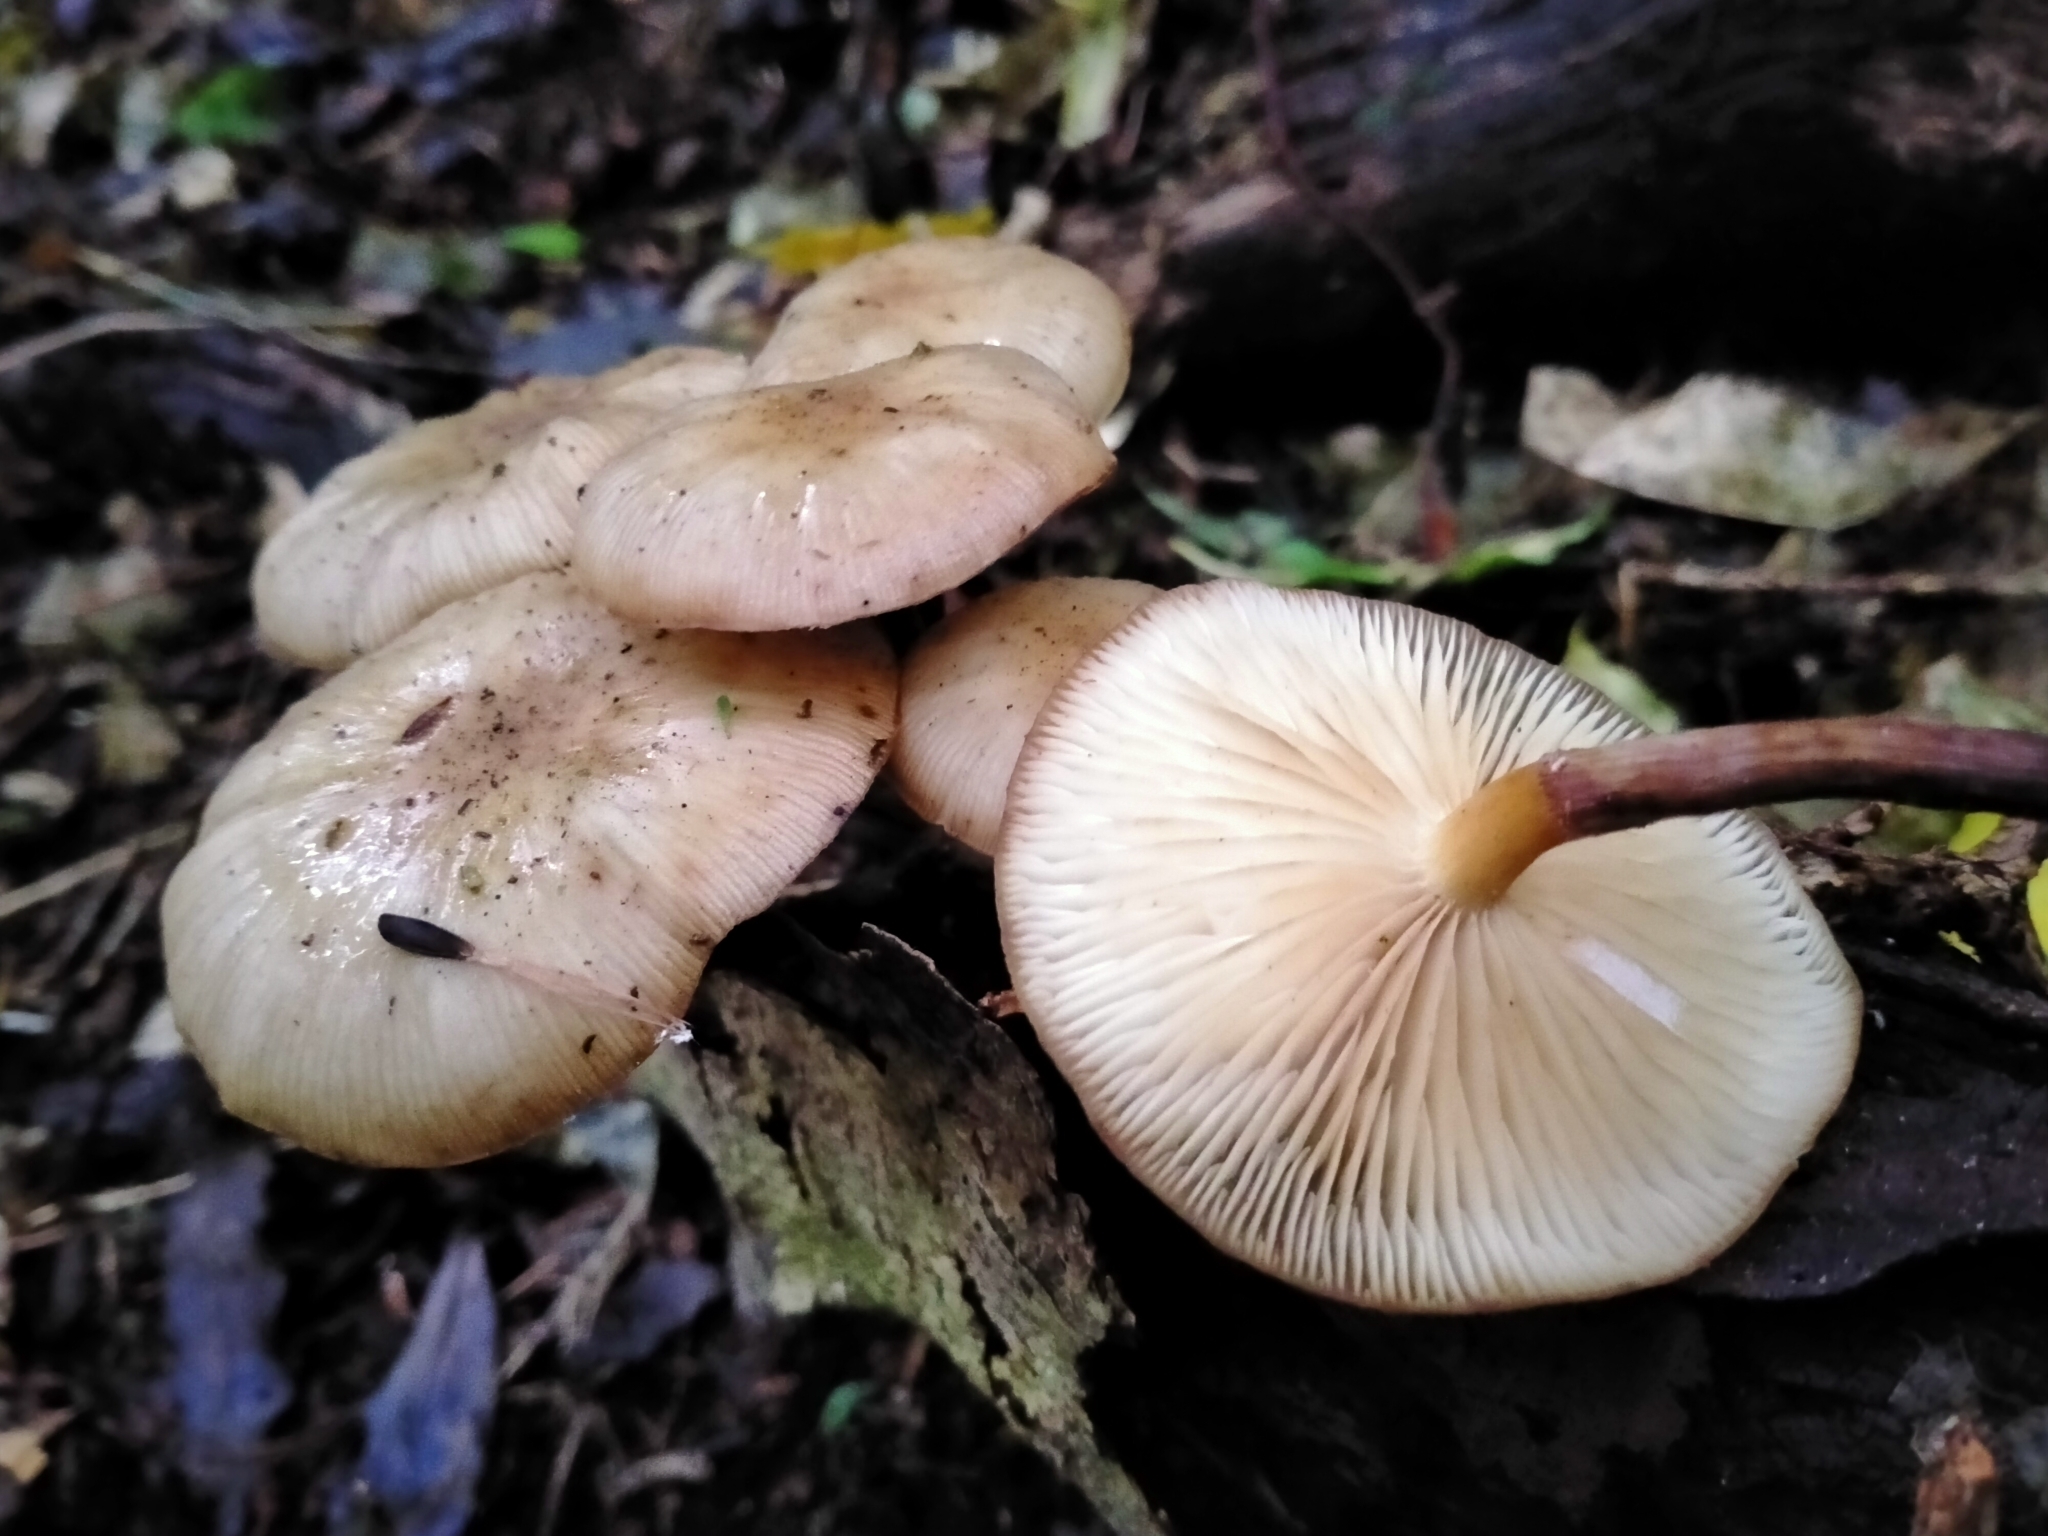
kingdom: Fungi
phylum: Basidiomycota
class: Agaricomycetes
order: Agaricales
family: Physalacriaceae
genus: Armillaria
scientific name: Armillaria novae-zelandiae
